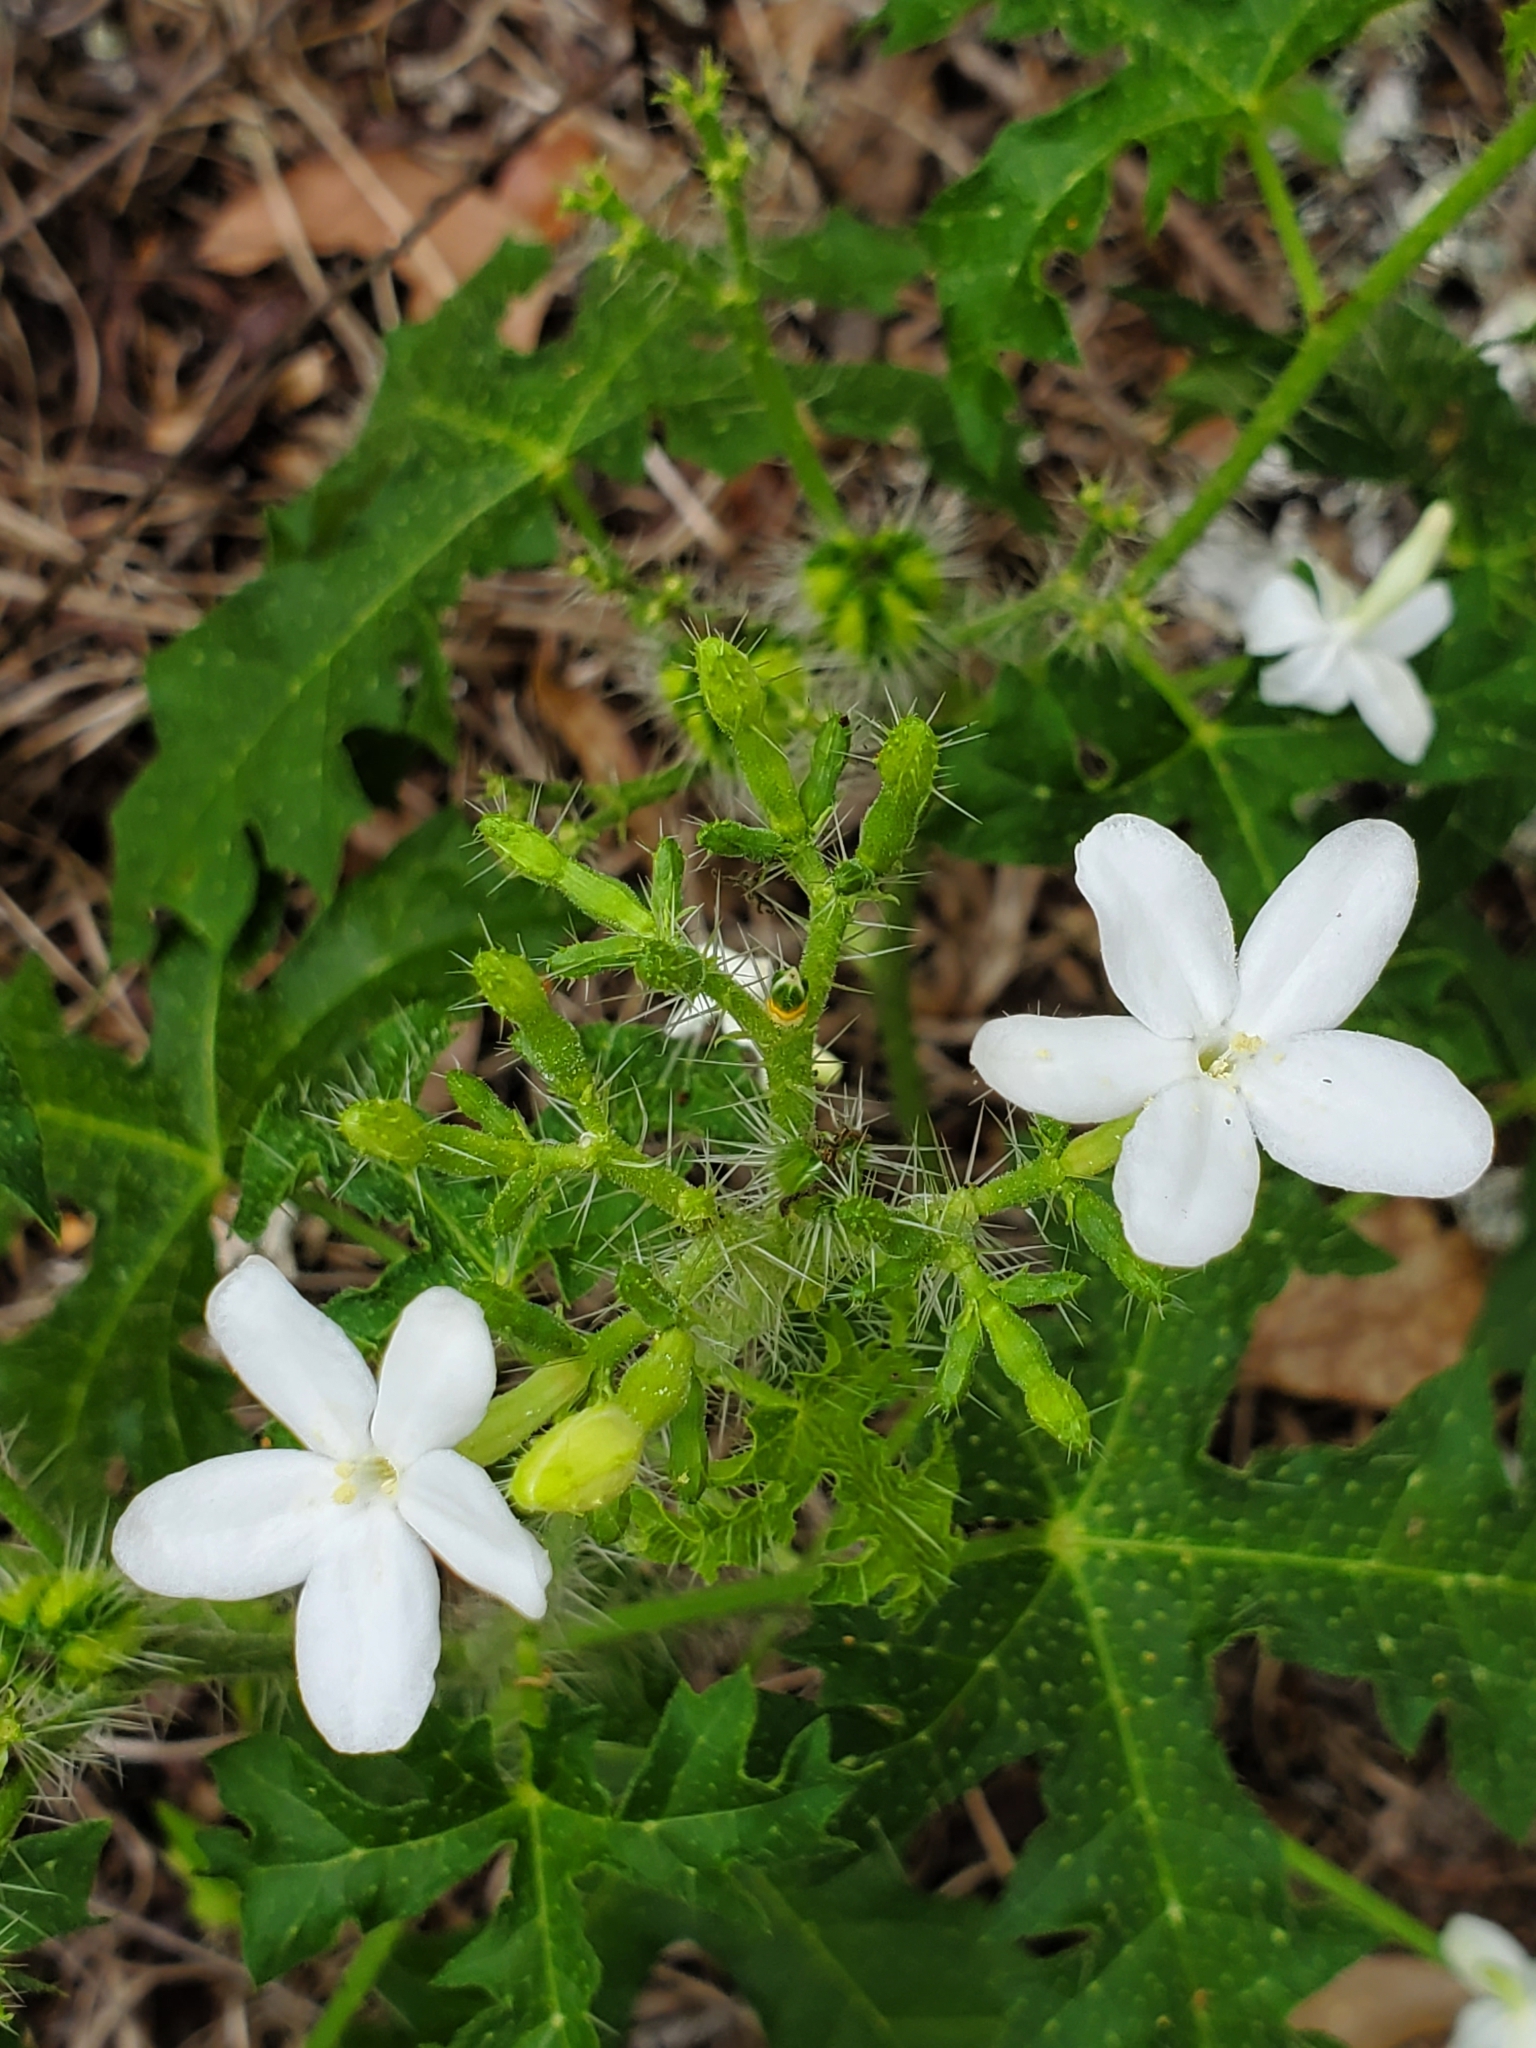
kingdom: Plantae
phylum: Tracheophyta
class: Magnoliopsida
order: Malpighiales
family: Euphorbiaceae
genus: Cnidoscolus
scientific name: Cnidoscolus stimulosus
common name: Bull-nettle
